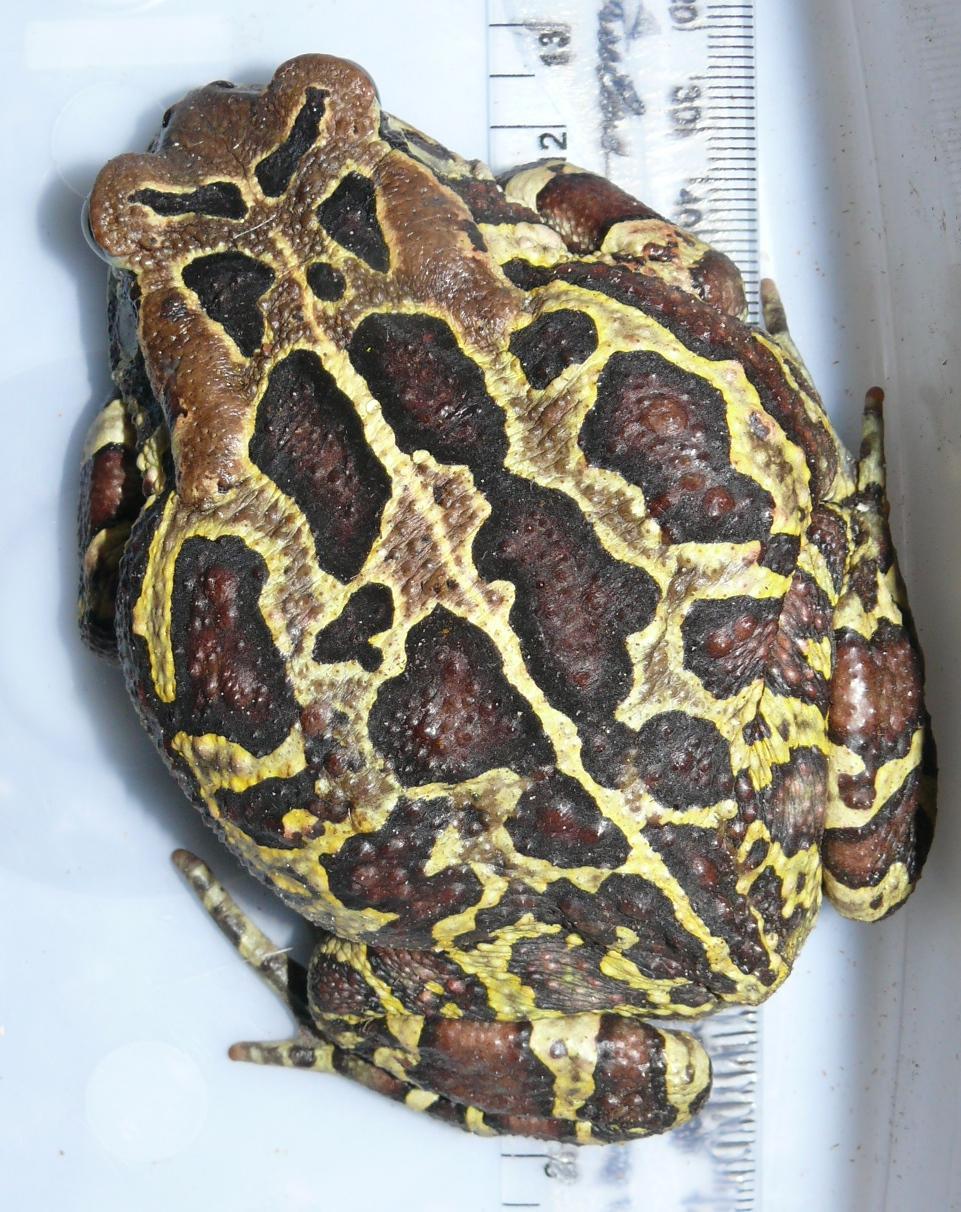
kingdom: Animalia
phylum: Chordata
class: Amphibia
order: Anura
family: Bufonidae
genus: Sclerophrys
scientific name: Sclerophrys pantherina
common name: Panther toad
